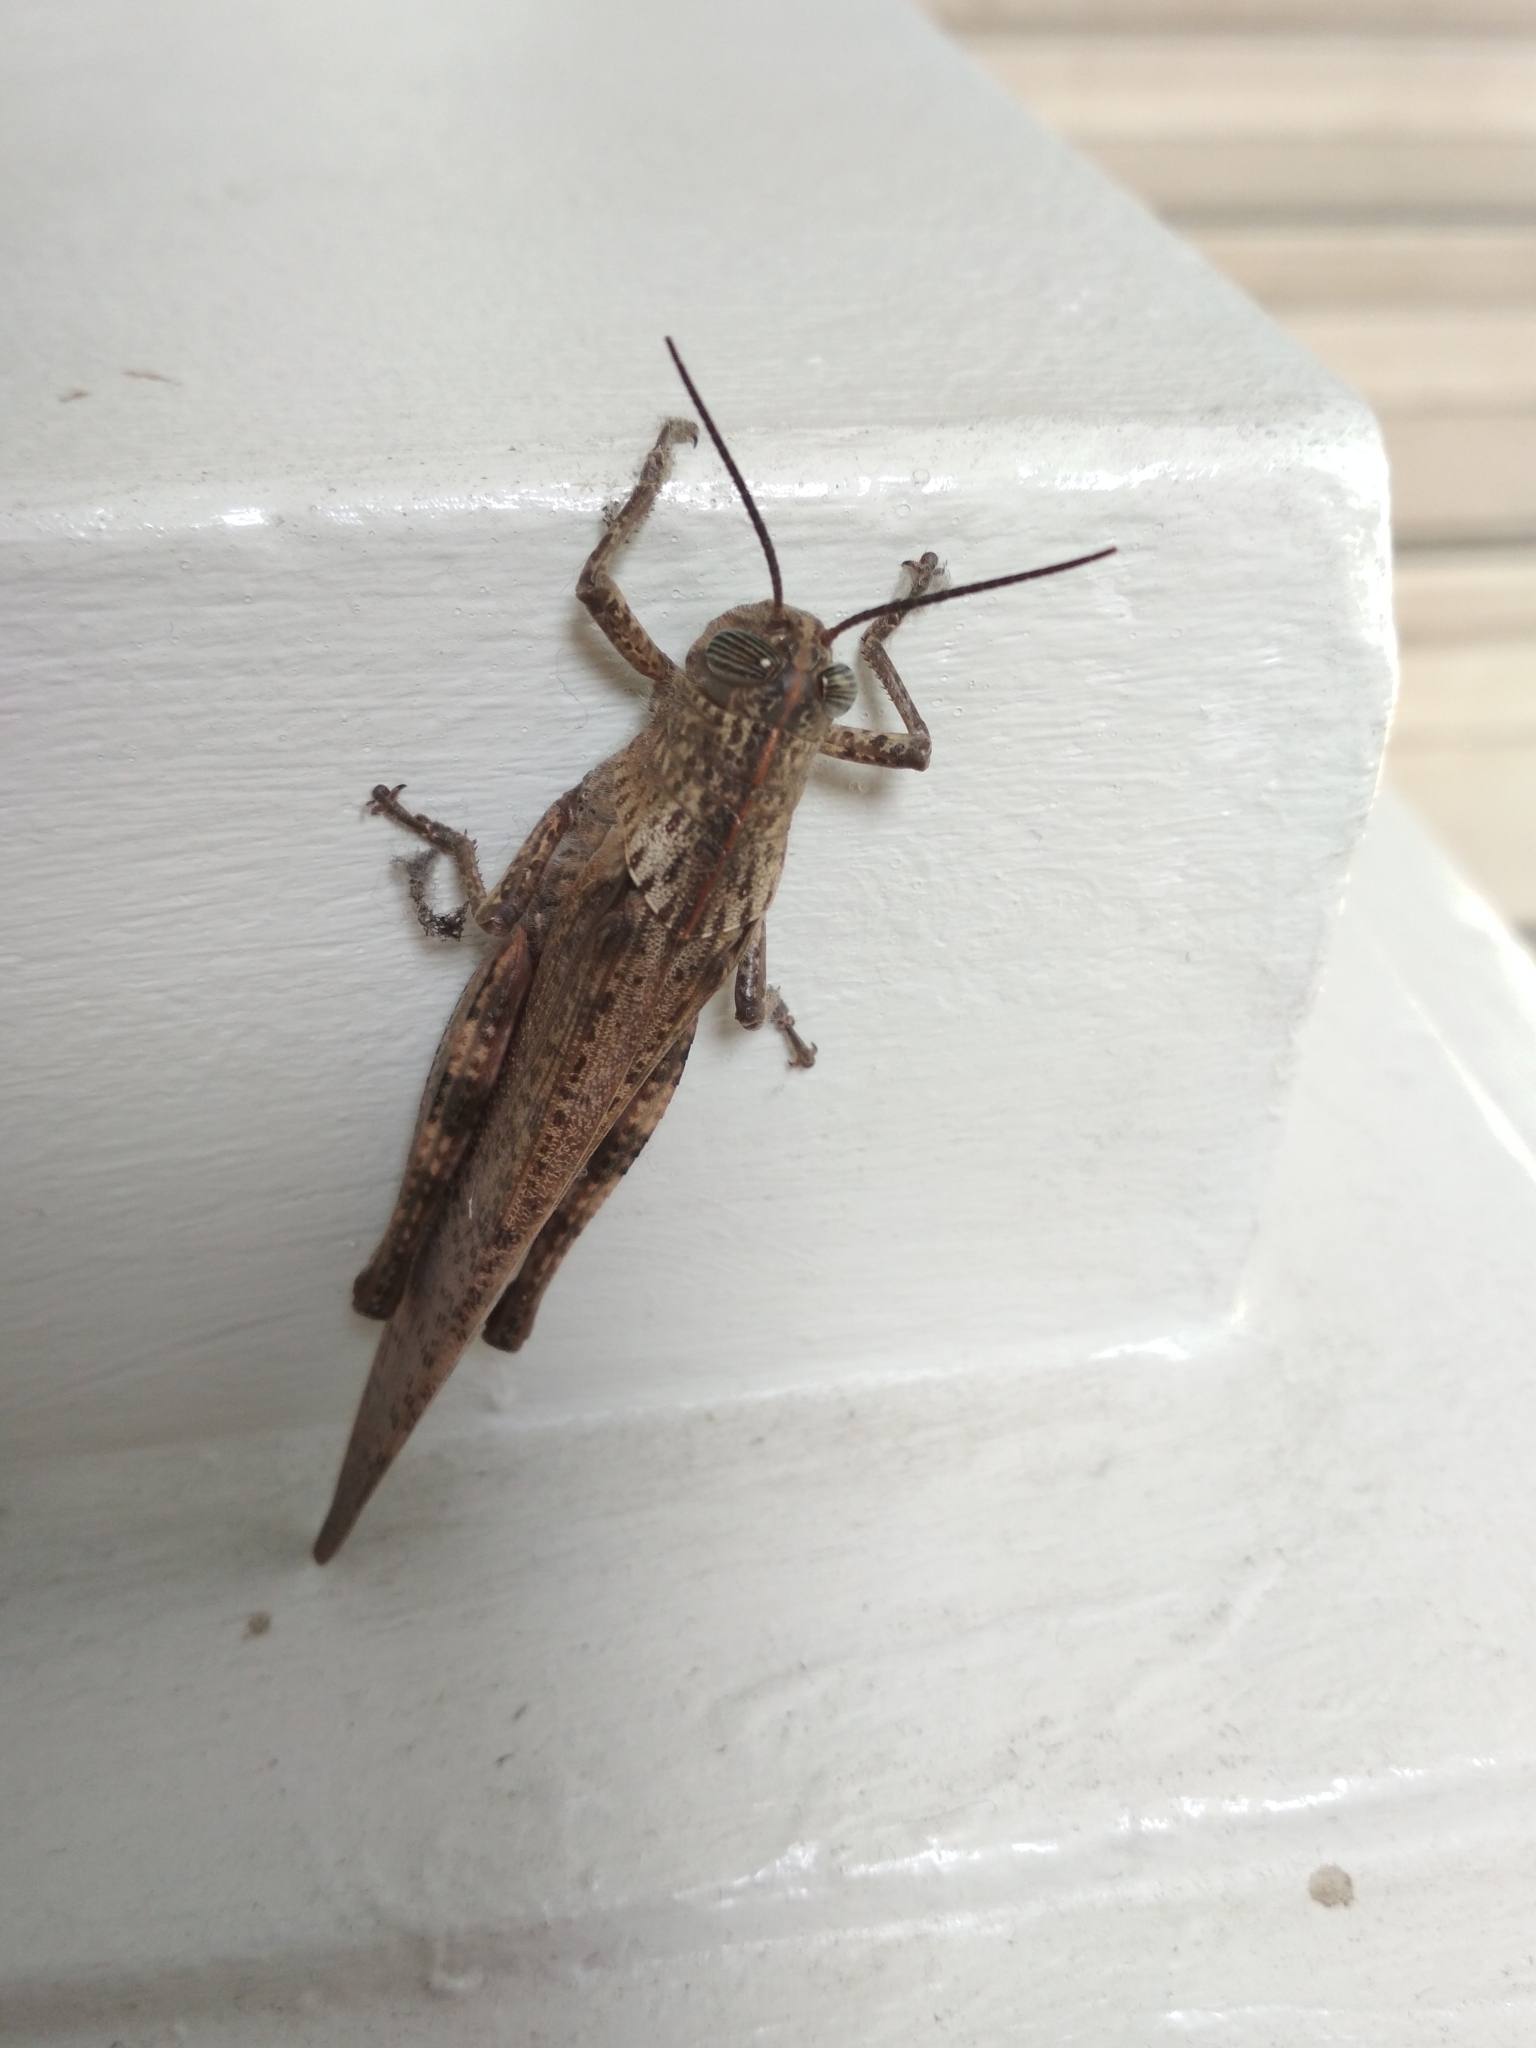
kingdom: Animalia
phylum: Arthropoda
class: Insecta
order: Orthoptera
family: Acrididae
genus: Anacridium
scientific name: Anacridium aegyptium
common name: Egyptian grasshopper
